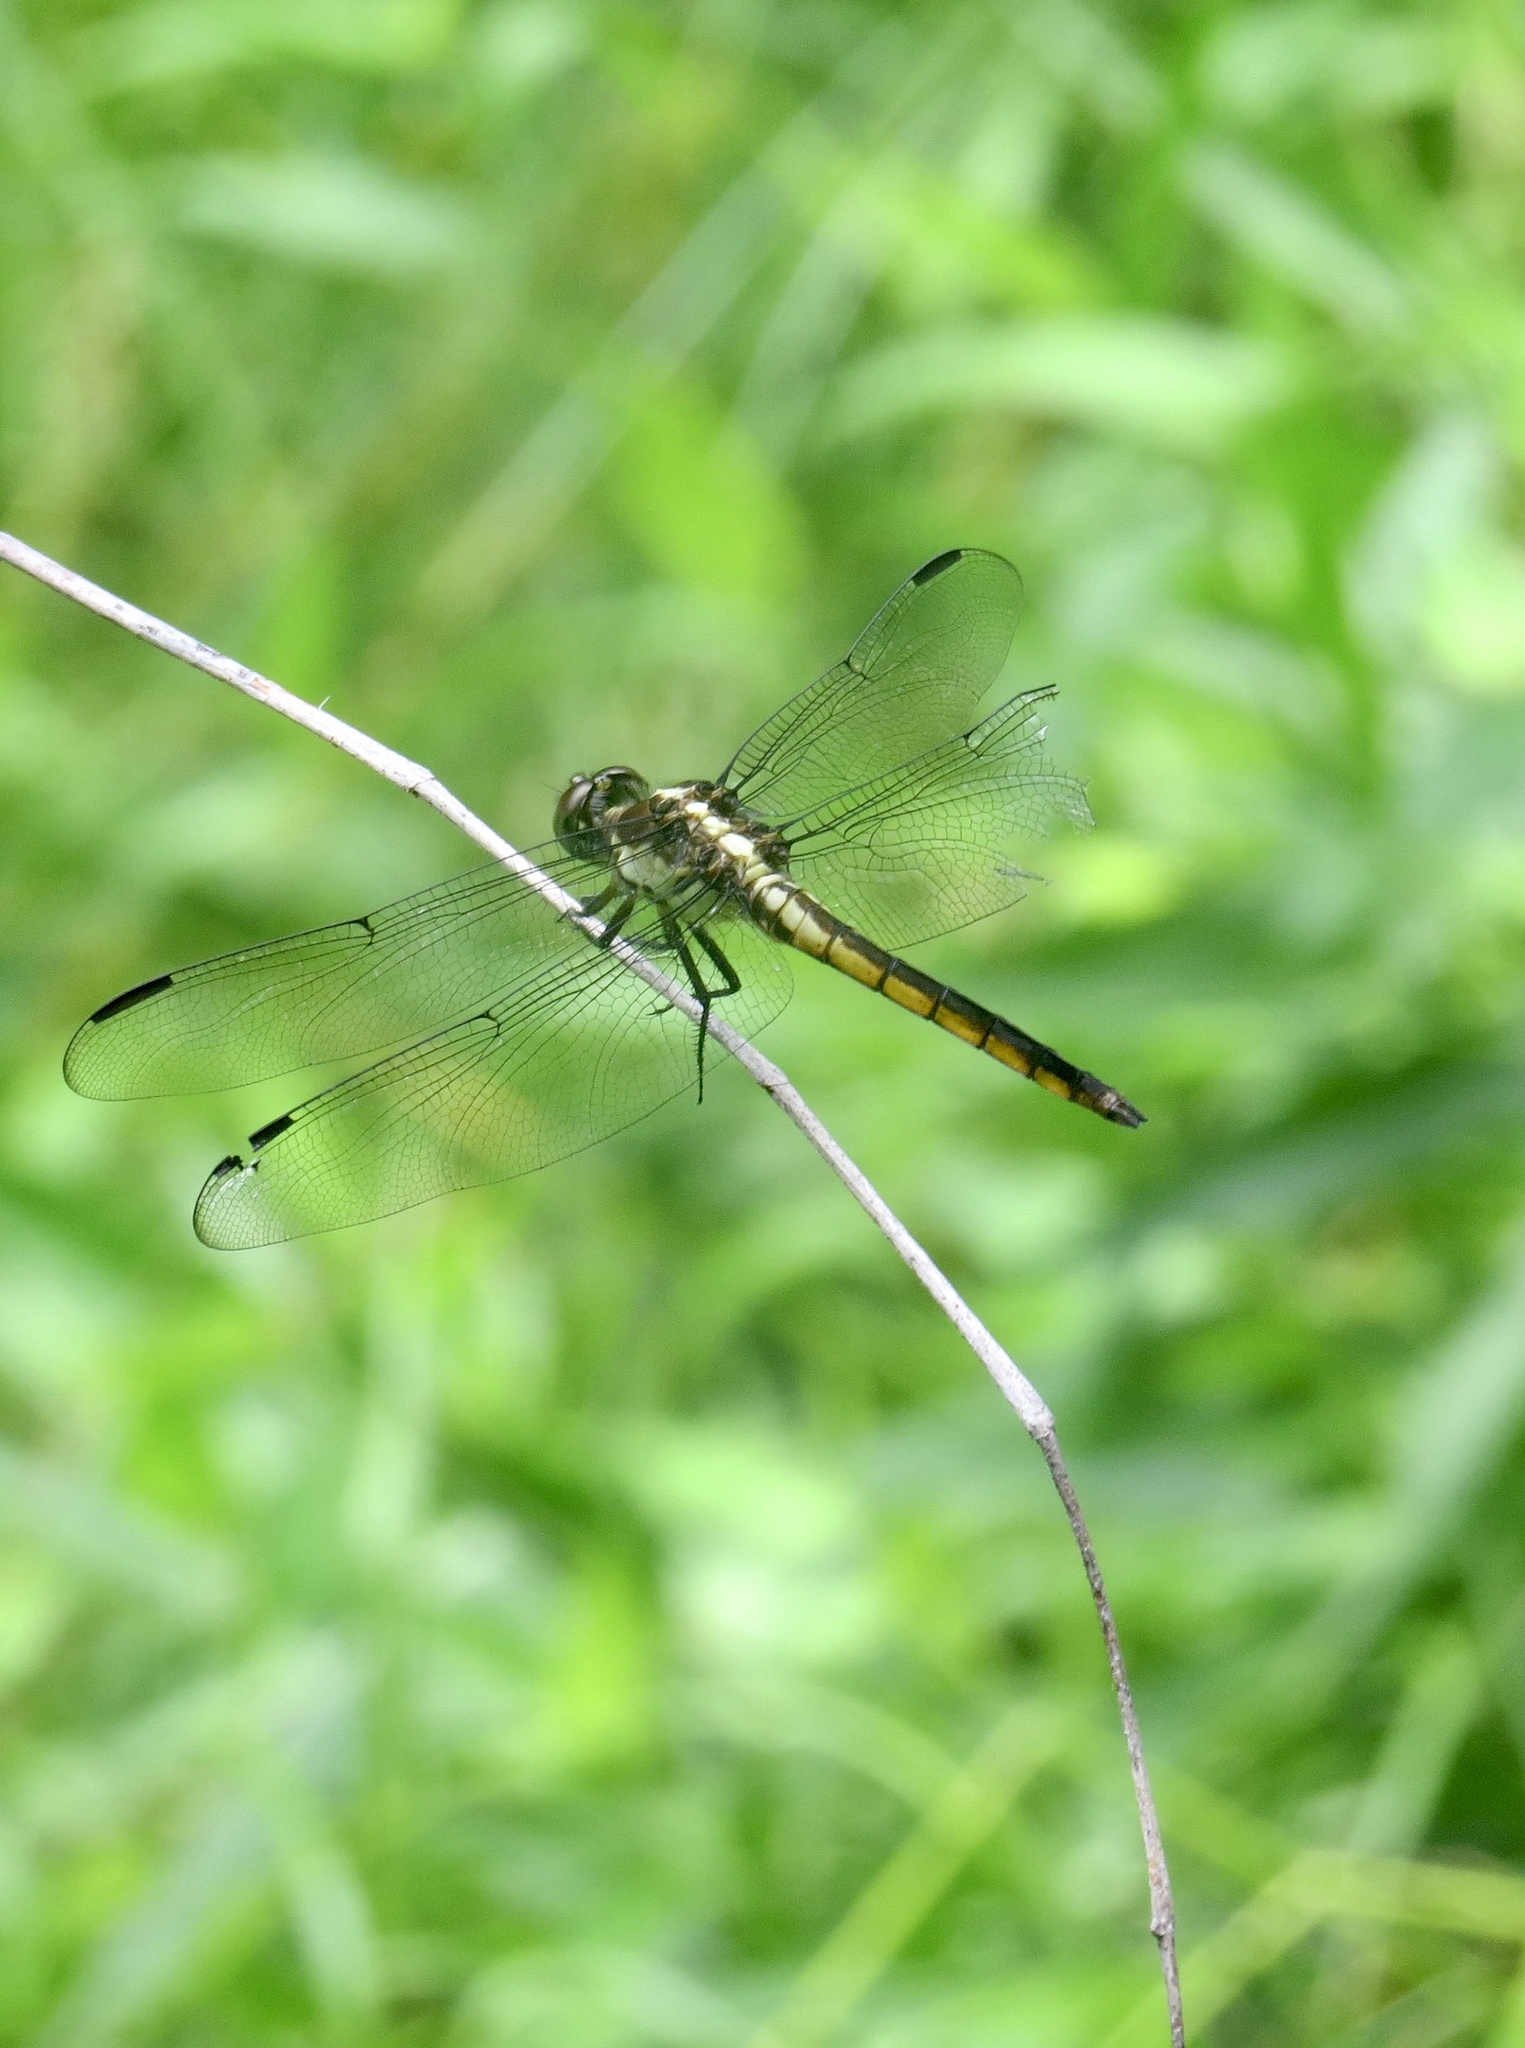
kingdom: Animalia
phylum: Arthropoda
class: Insecta
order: Odonata
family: Libellulidae
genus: Libellula
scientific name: Libellula incesta
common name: Slaty skimmer
